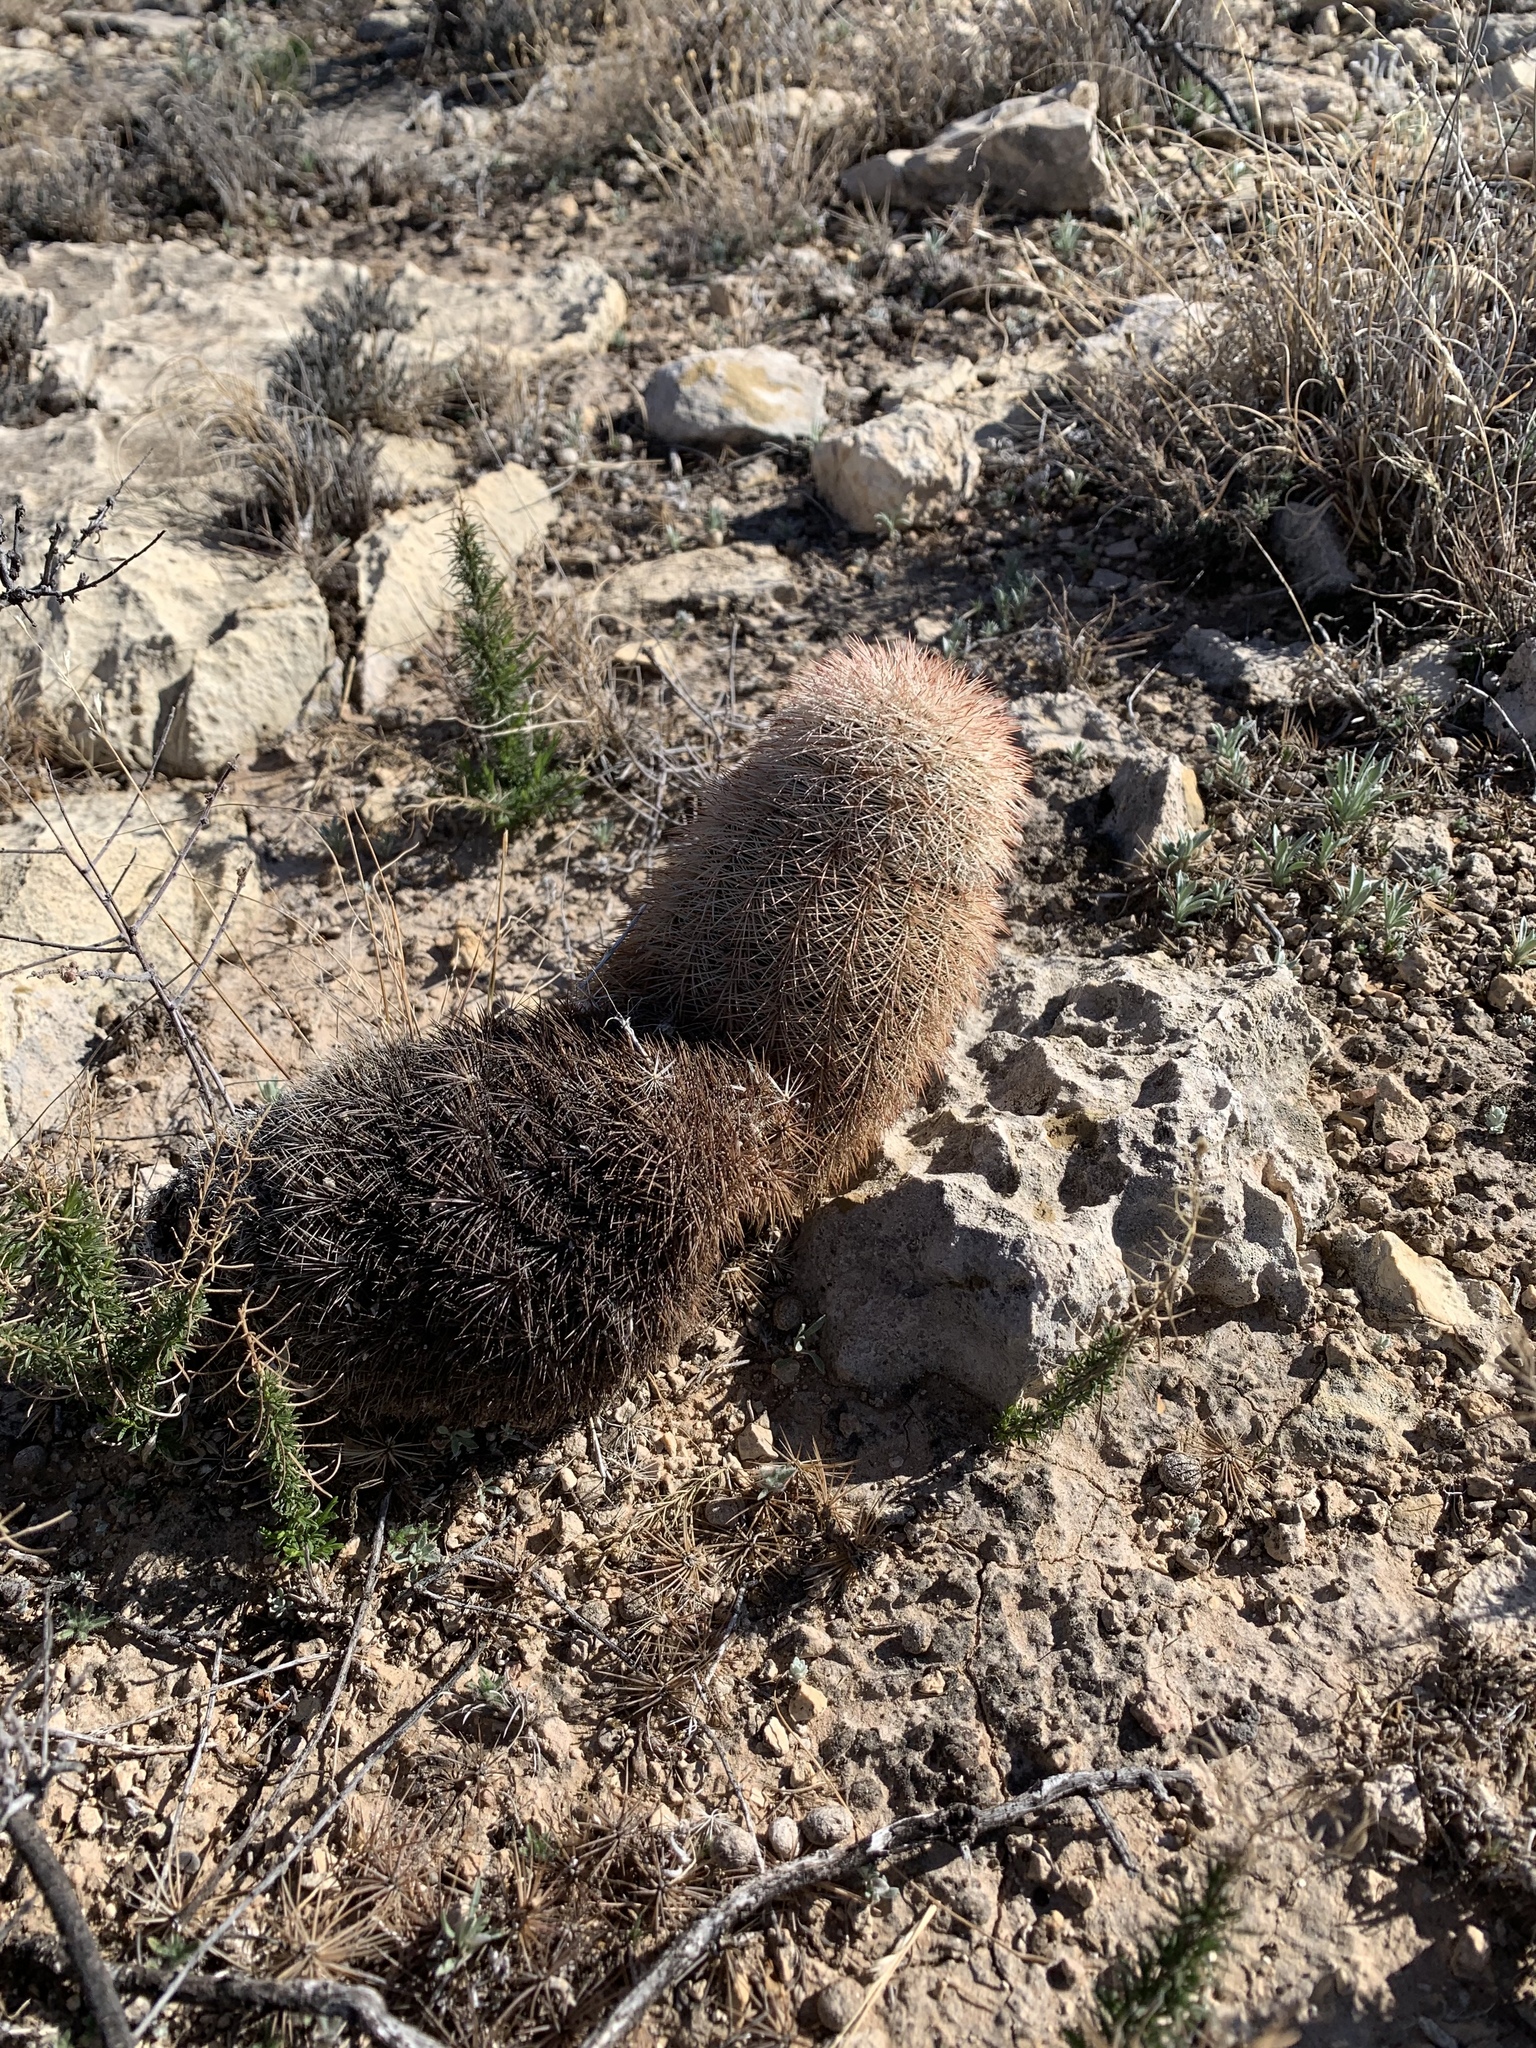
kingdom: Plantae
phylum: Tracheophyta
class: Magnoliopsida
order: Caryophyllales
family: Cactaceae
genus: Echinocereus
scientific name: Echinocereus dasyacanthus
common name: Spiny hedgehog cactus
